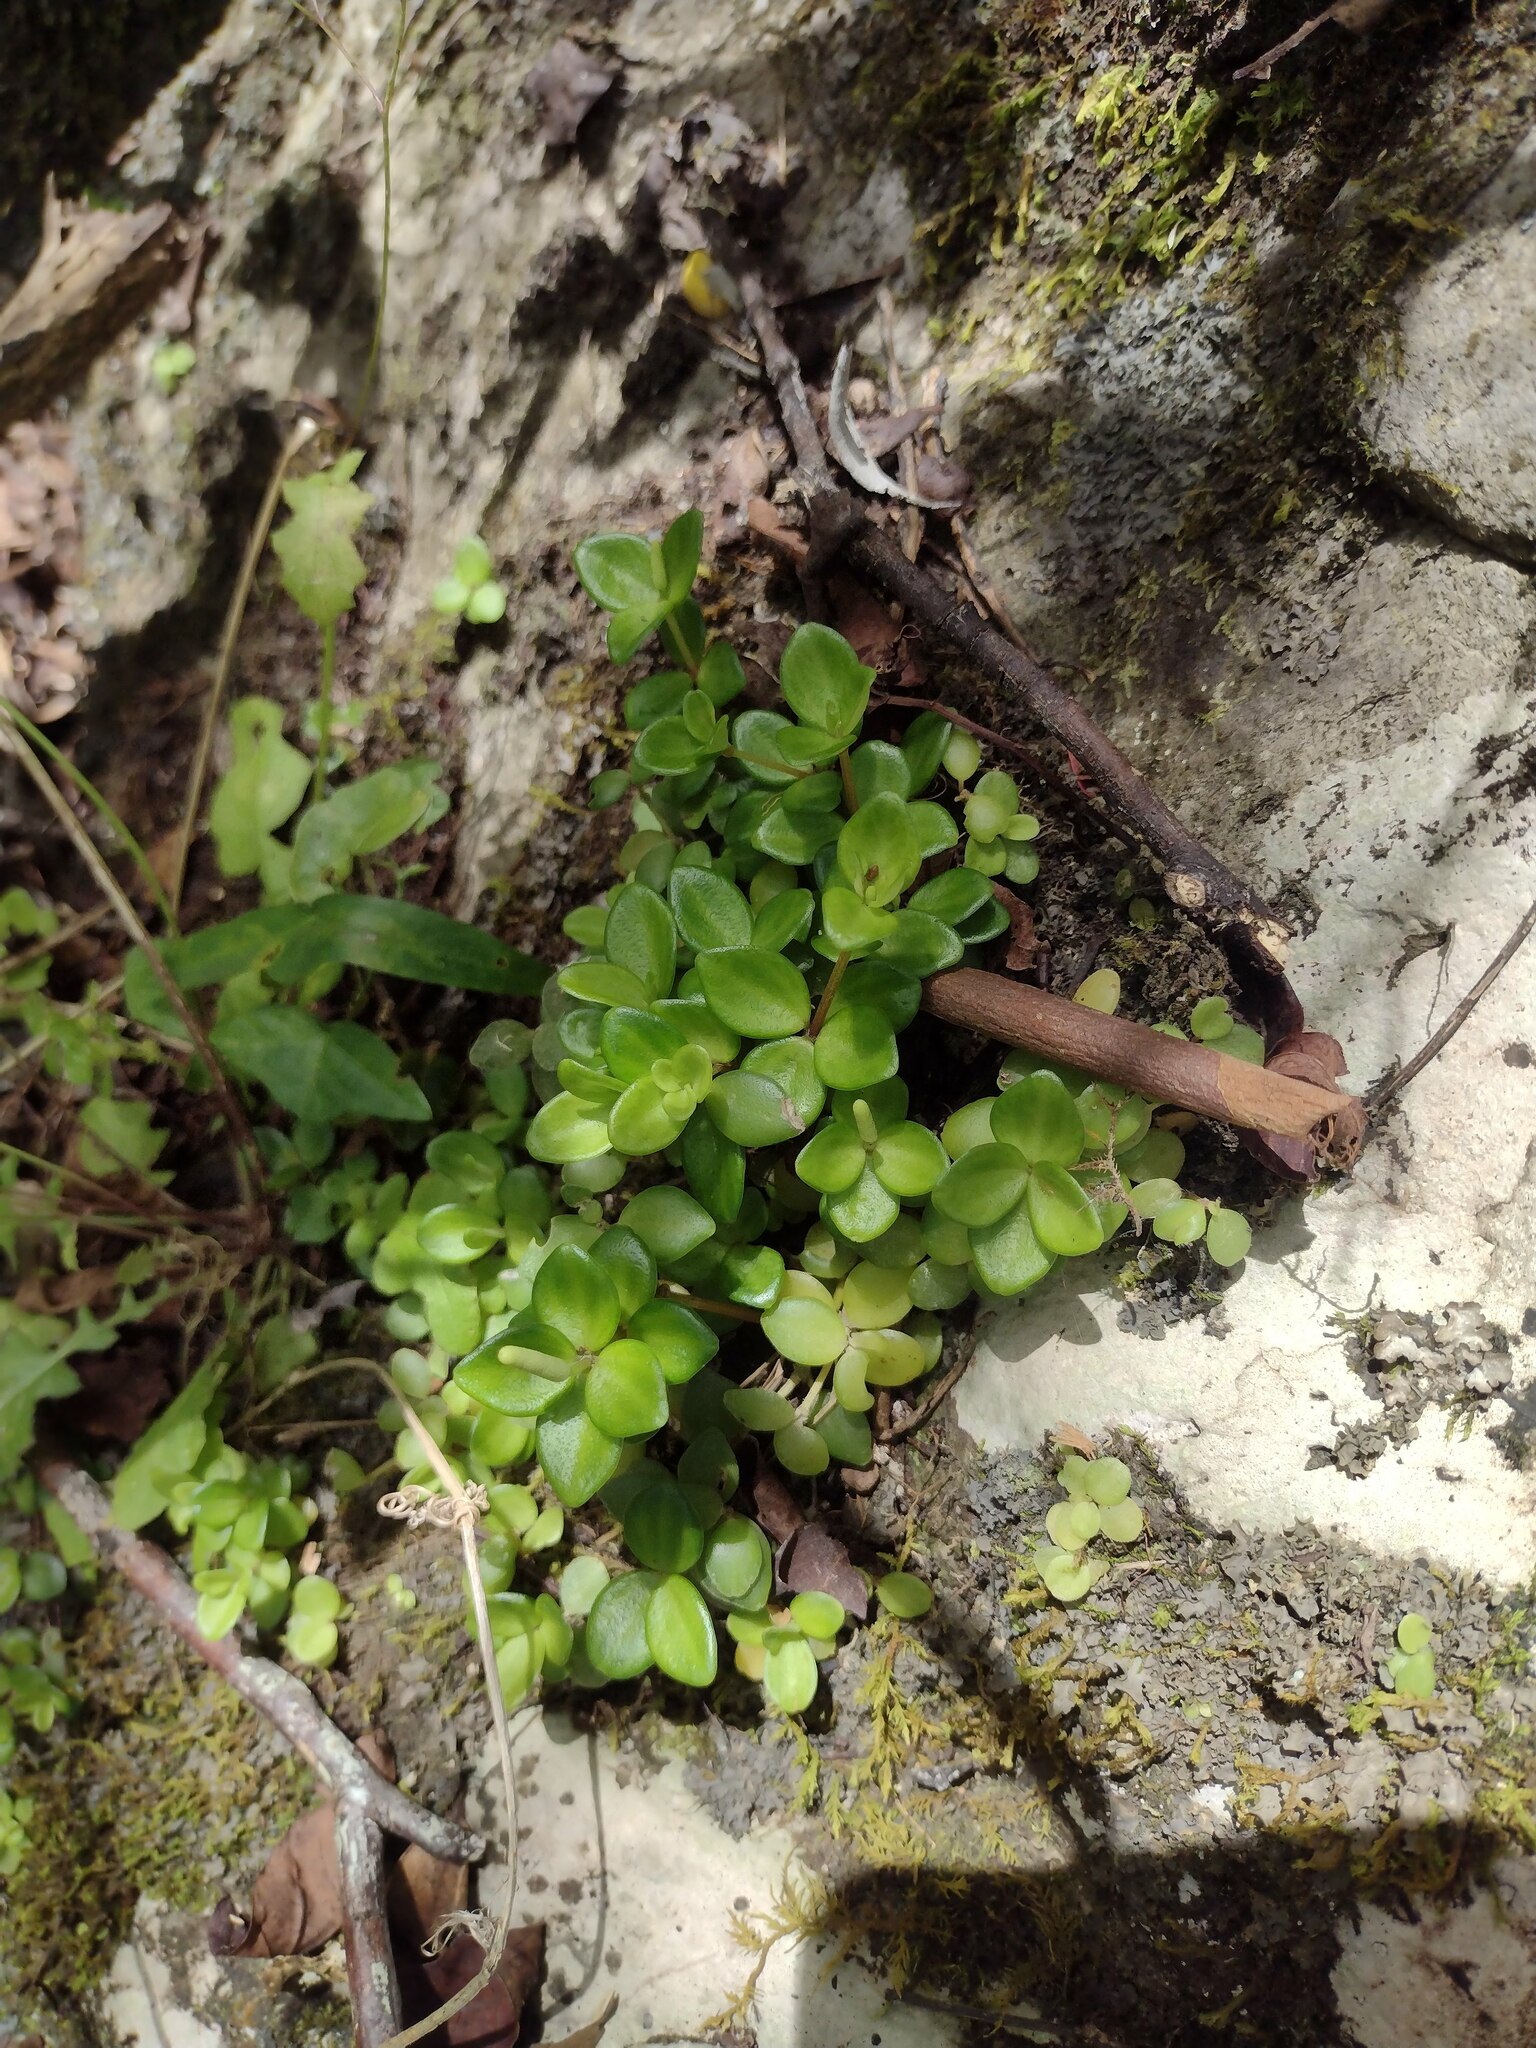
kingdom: Plantae
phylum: Tracheophyta
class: Magnoliopsida
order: Piperales
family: Piperaceae
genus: Peperomia
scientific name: Peperomia tetraphylla
